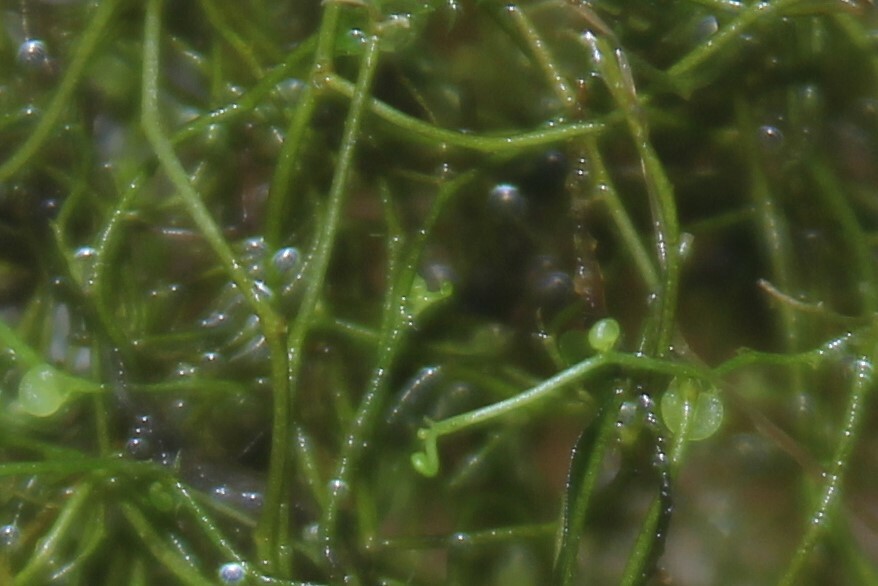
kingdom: Plantae
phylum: Tracheophyta
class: Magnoliopsida
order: Lamiales
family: Lentibulariaceae
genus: Utricularia
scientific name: Utricularia gibba
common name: Humped bladderwort
